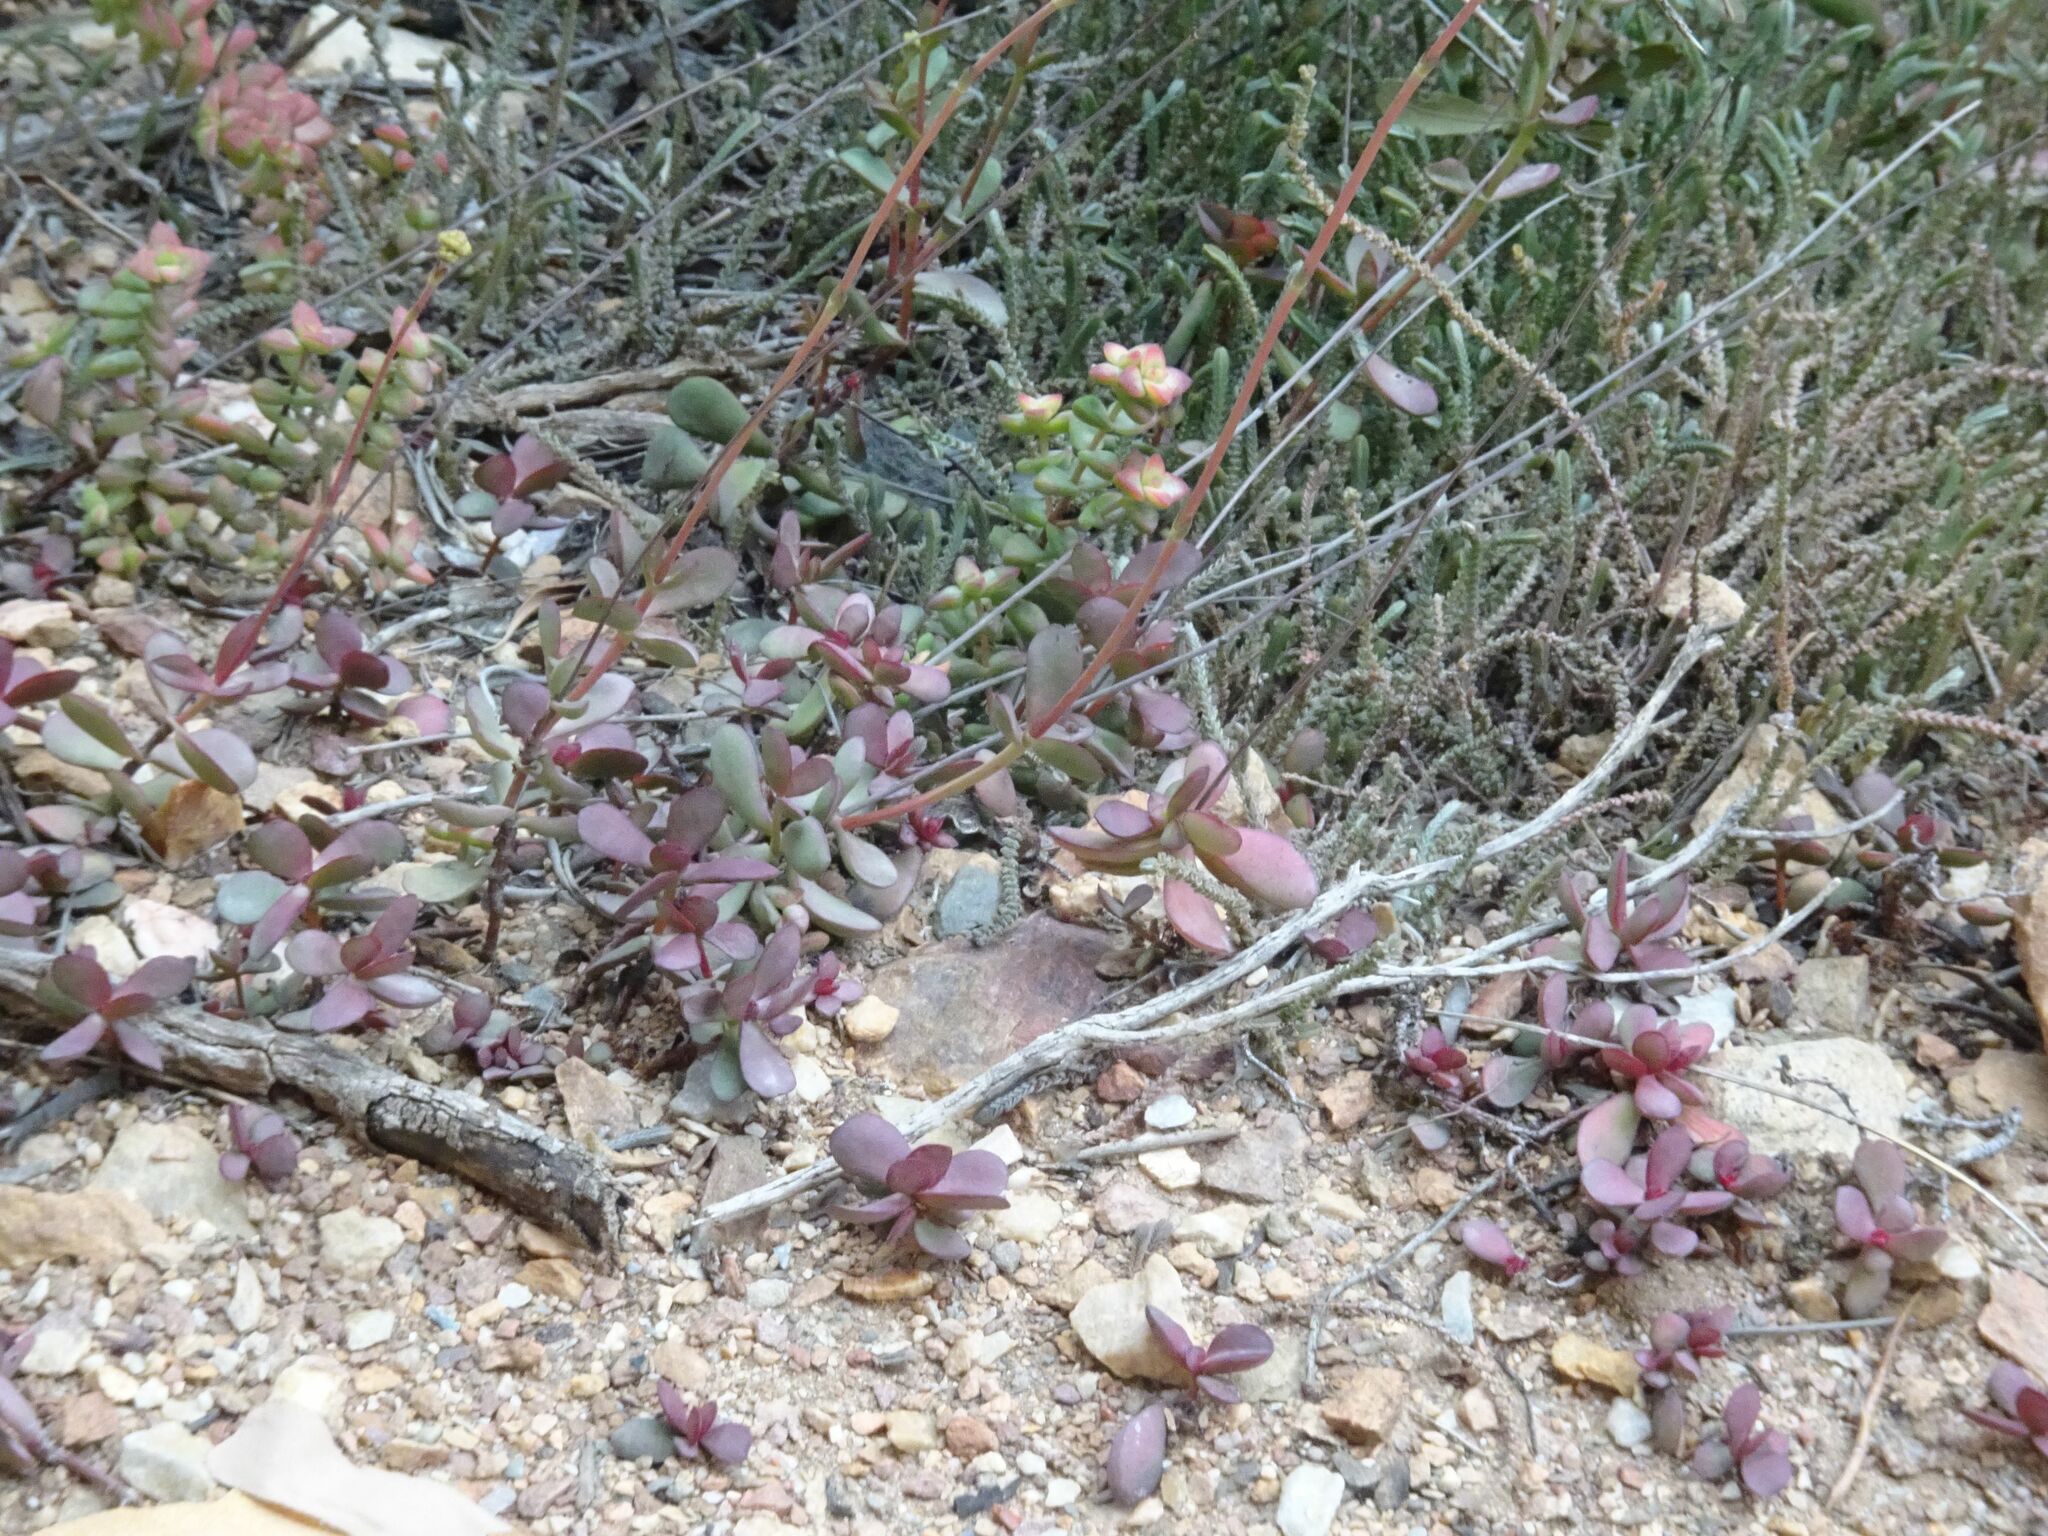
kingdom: Plantae
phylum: Tracheophyta
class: Magnoliopsida
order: Saxifragales
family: Crassulaceae
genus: Crassula
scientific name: Crassula cultrata
